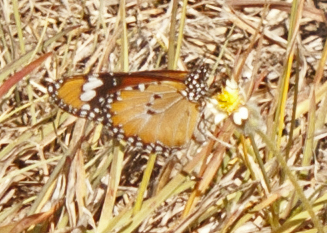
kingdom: Animalia
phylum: Arthropoda
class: Insecta
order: Lepidoptera
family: Nymphalidae
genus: Danaus
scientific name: Danaus chrysippus
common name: Plain tiger
